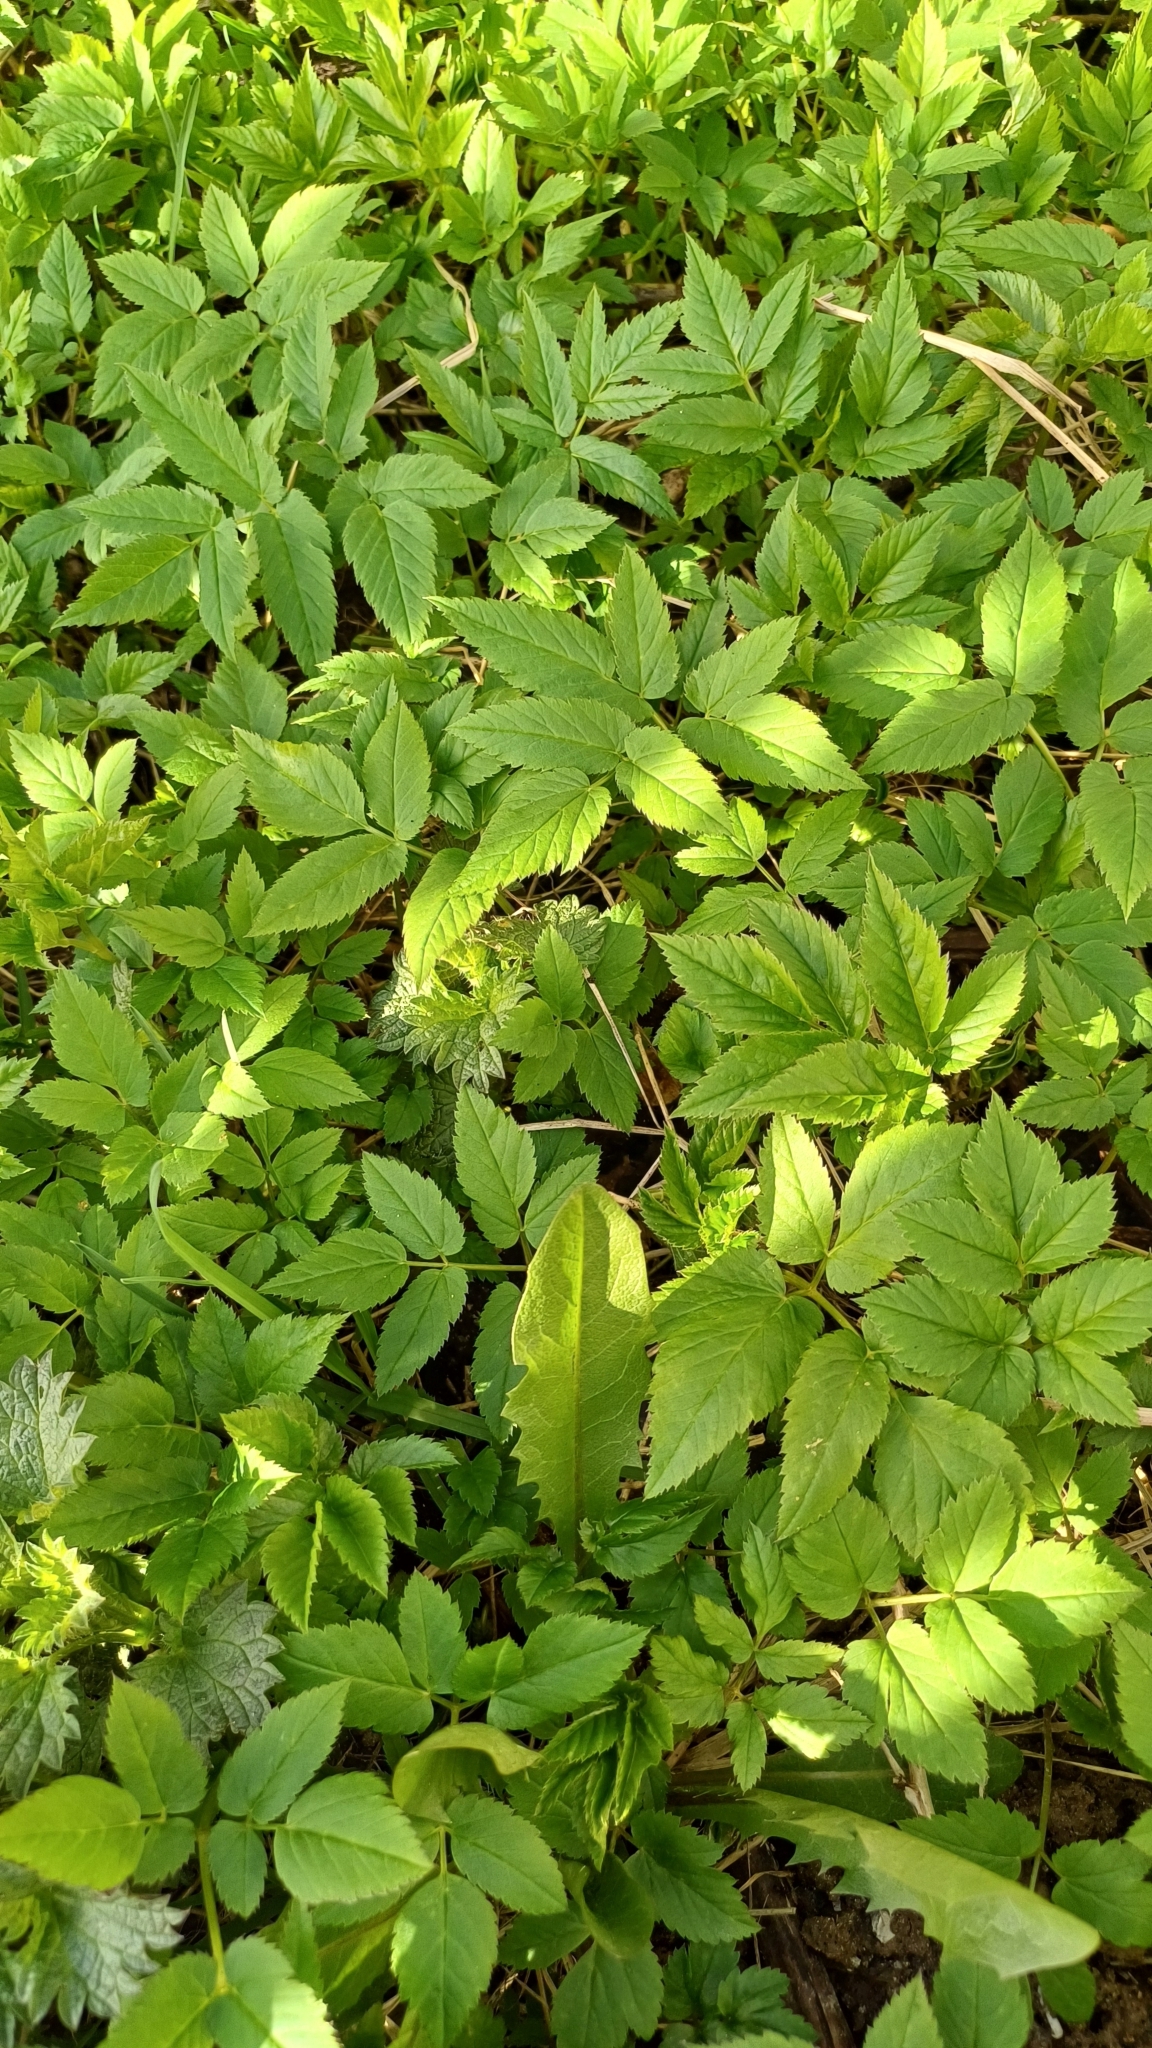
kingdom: Plantae
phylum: Tracheophyta
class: Magnoliopsida
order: Apiales
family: Apiaceae
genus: Aegopodium
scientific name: Aegopodium podagraria
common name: Ground-elder
